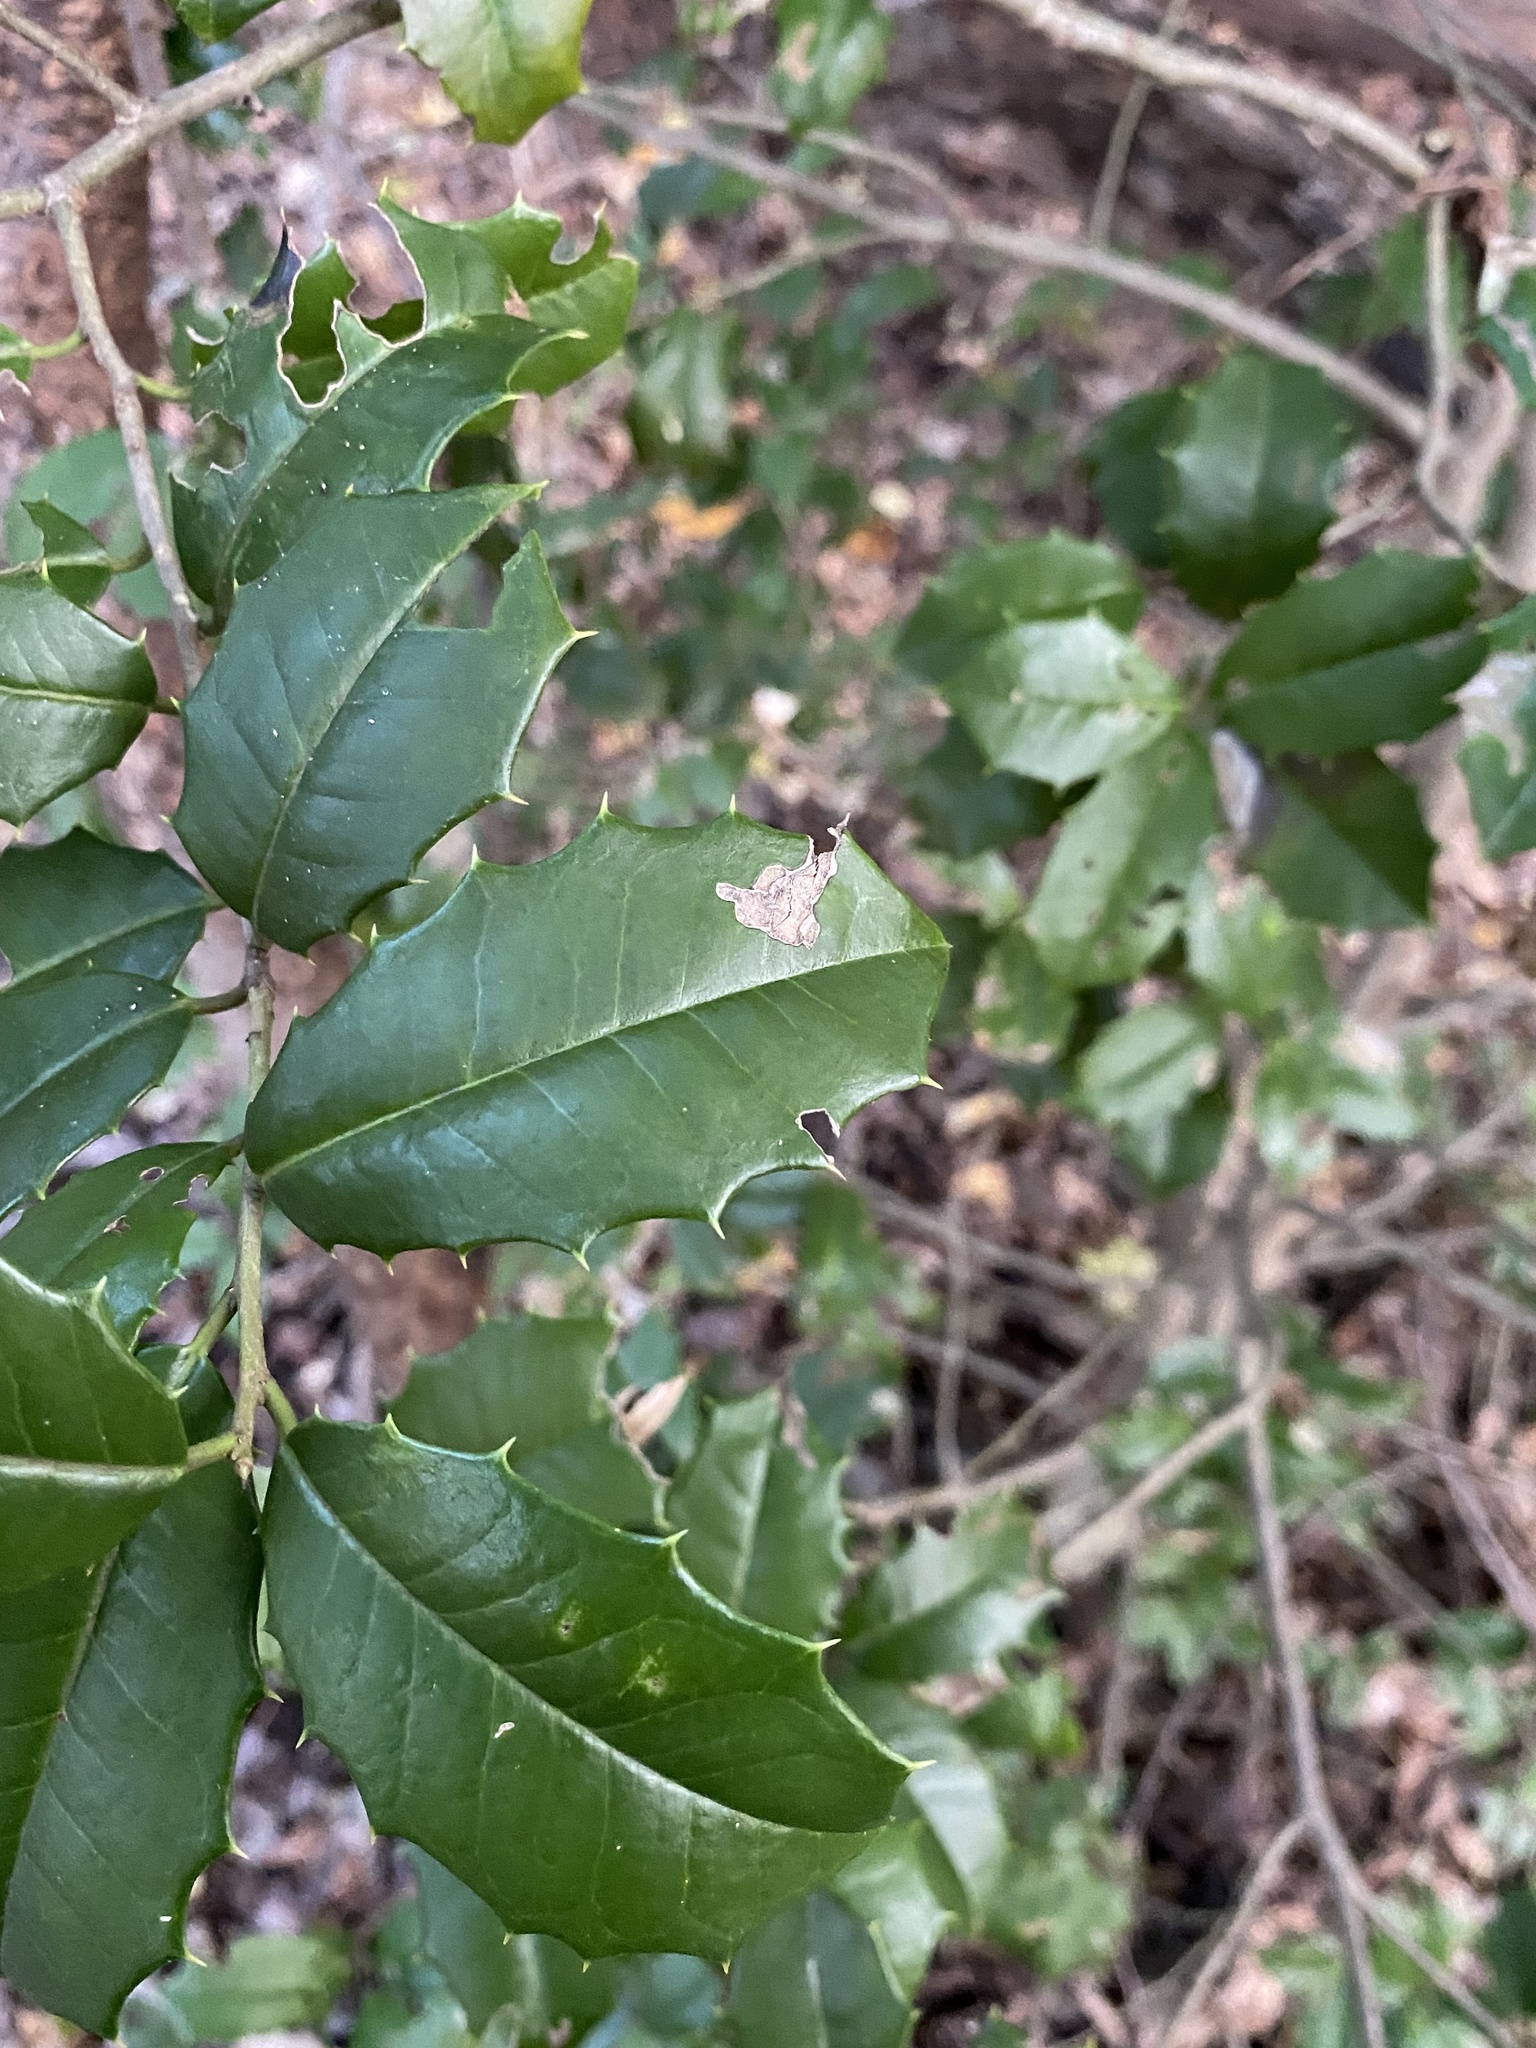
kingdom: Plantae
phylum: Tracheophyta
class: Magnoliopsida
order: Aquifoliales
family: Aquifoliaceae
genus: Ilex
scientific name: Ilex opaca
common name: American holly
